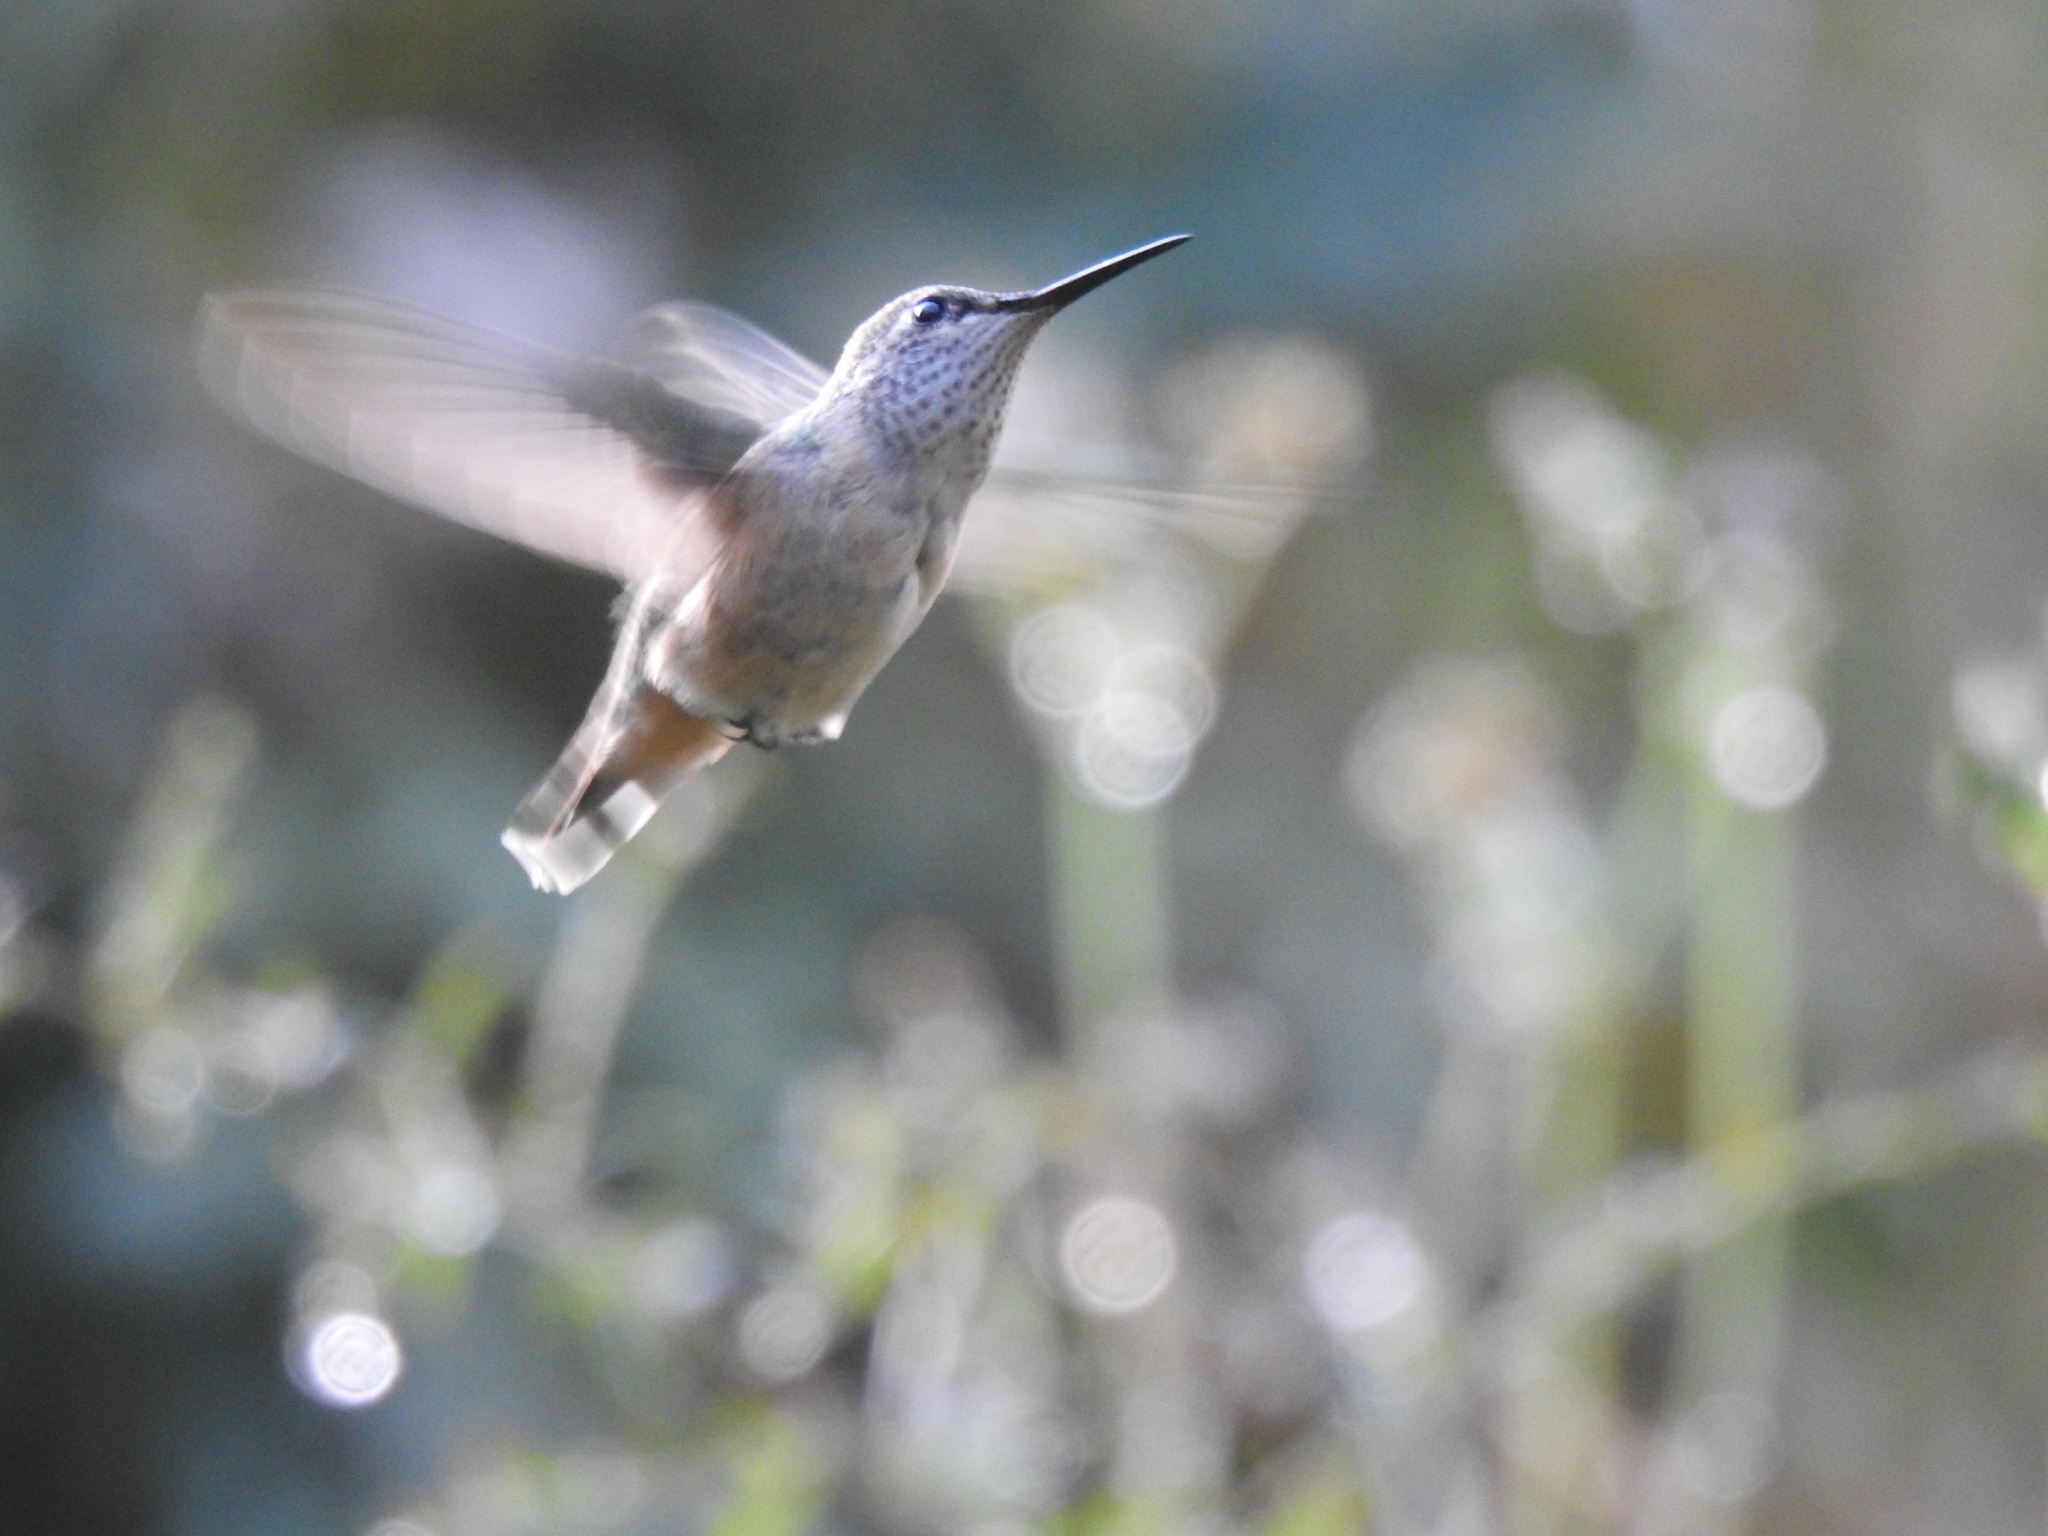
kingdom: Animalia
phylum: Chordata
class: Aves
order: Apodiformes
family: Trochilidae
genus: Selasphorus
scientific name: Selasphorus calliope
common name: Calliope hummingbird
